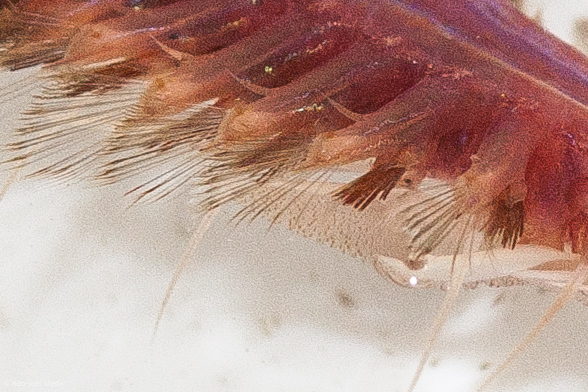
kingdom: Animalia
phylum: Annelida
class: Polychaeta
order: Phyllodocida
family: Polynoidae
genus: Hesperonoe
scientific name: Hesperonoe complanata
